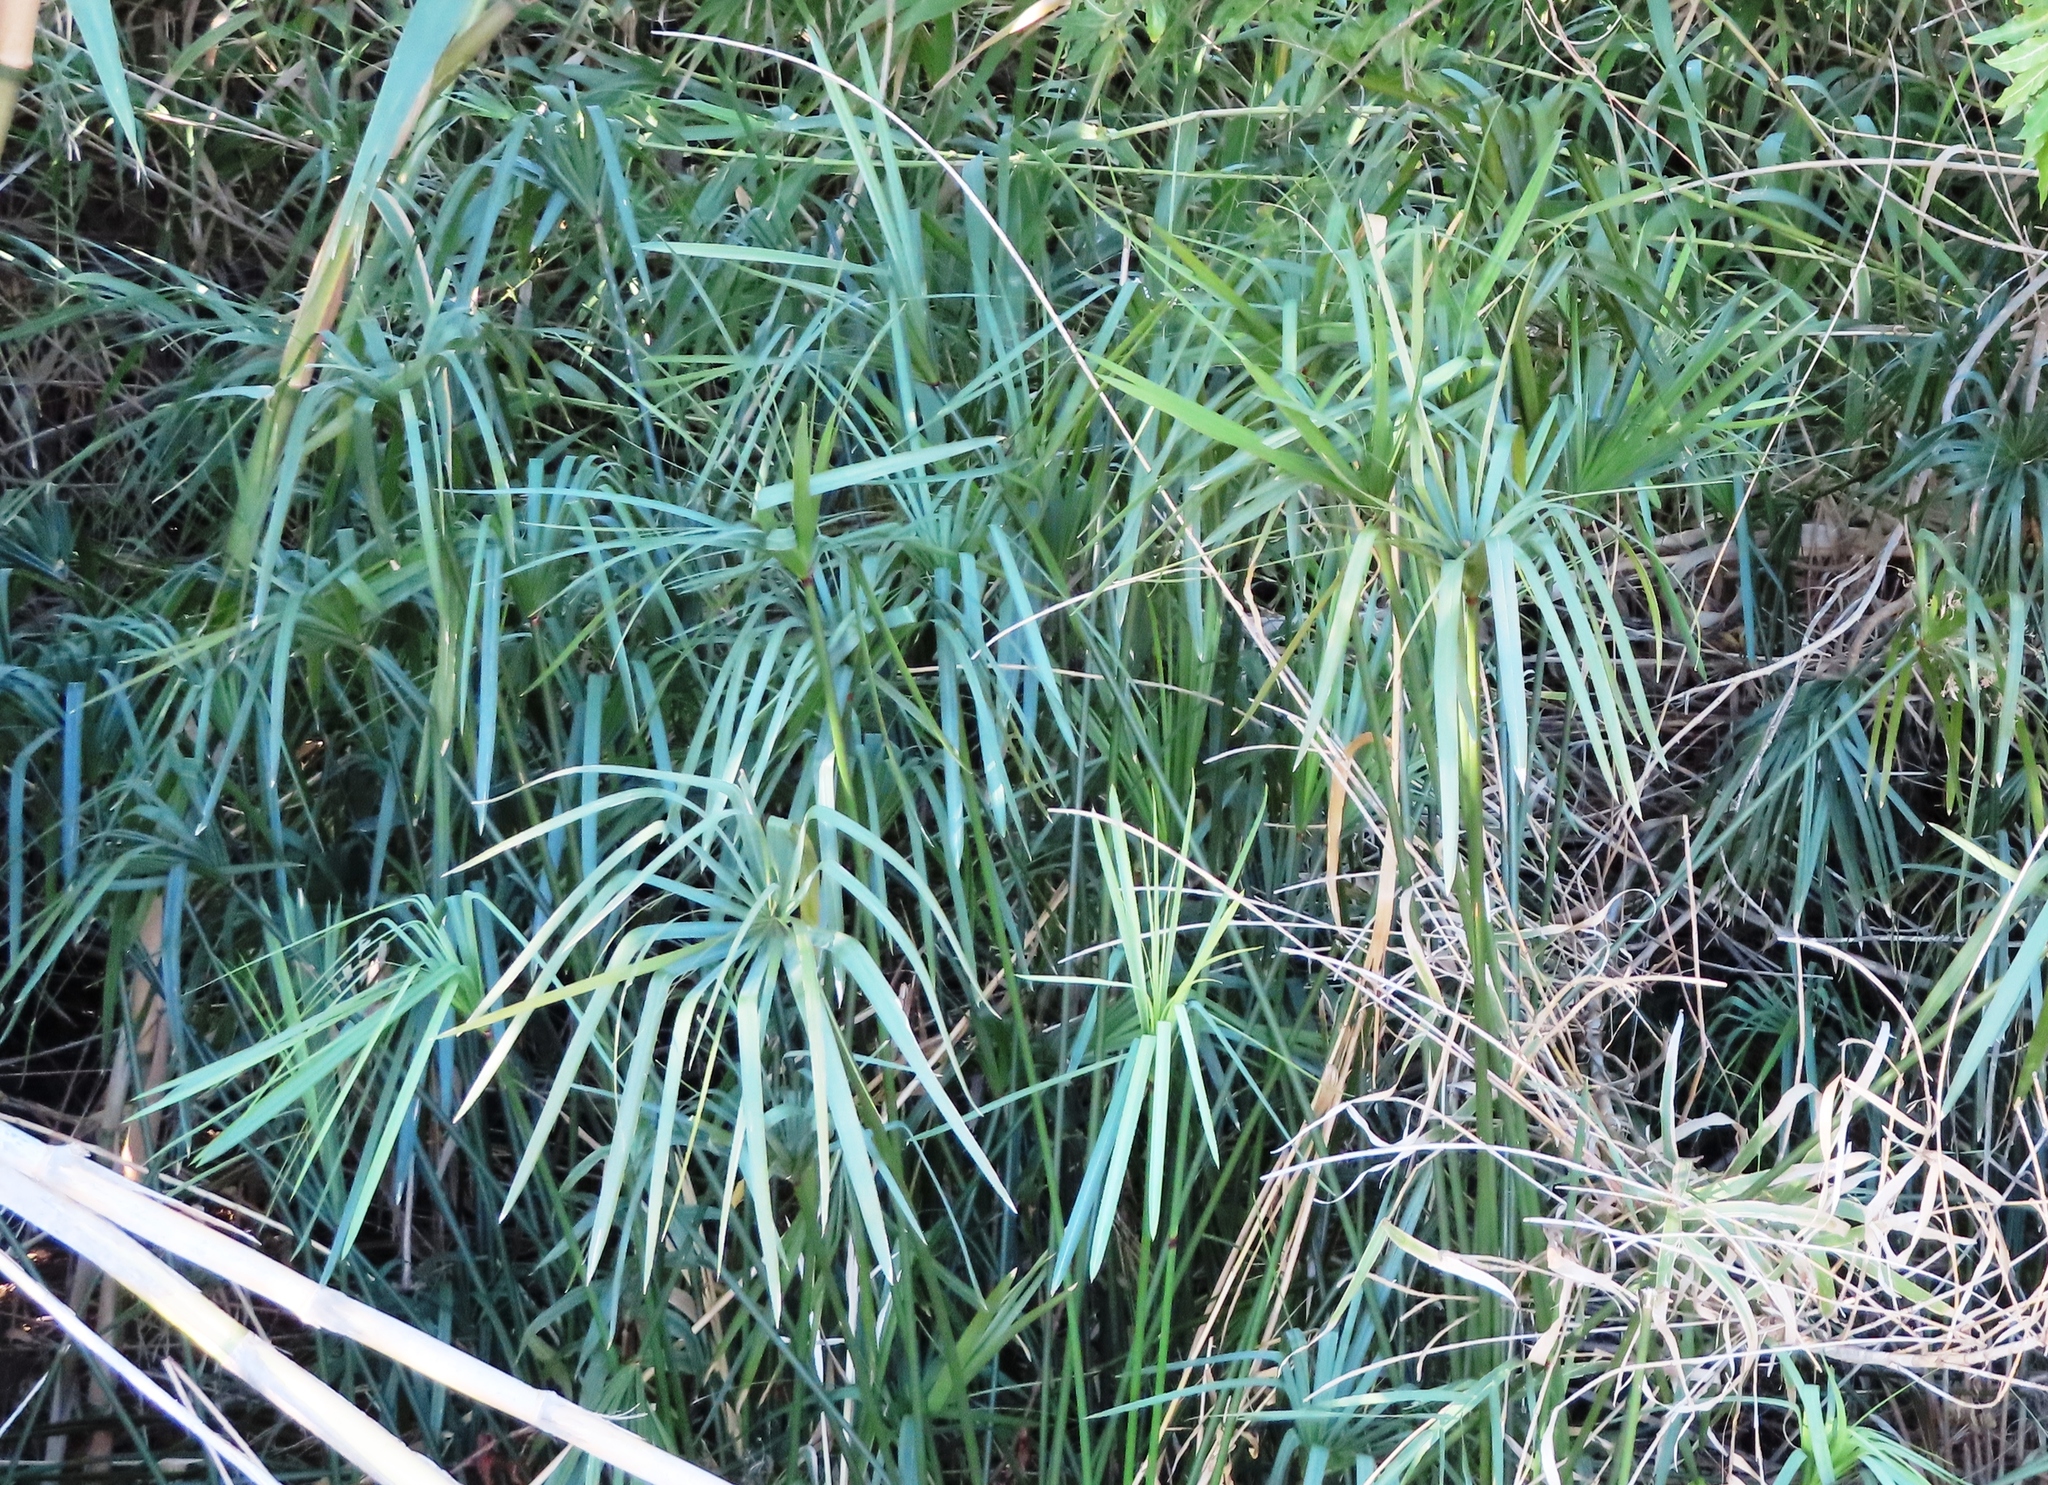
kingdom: Plantae
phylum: Tracheophyta
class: Liliopsida
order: Poales
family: Cyperaceae
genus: Cyperus
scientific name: Cyperus textilis
